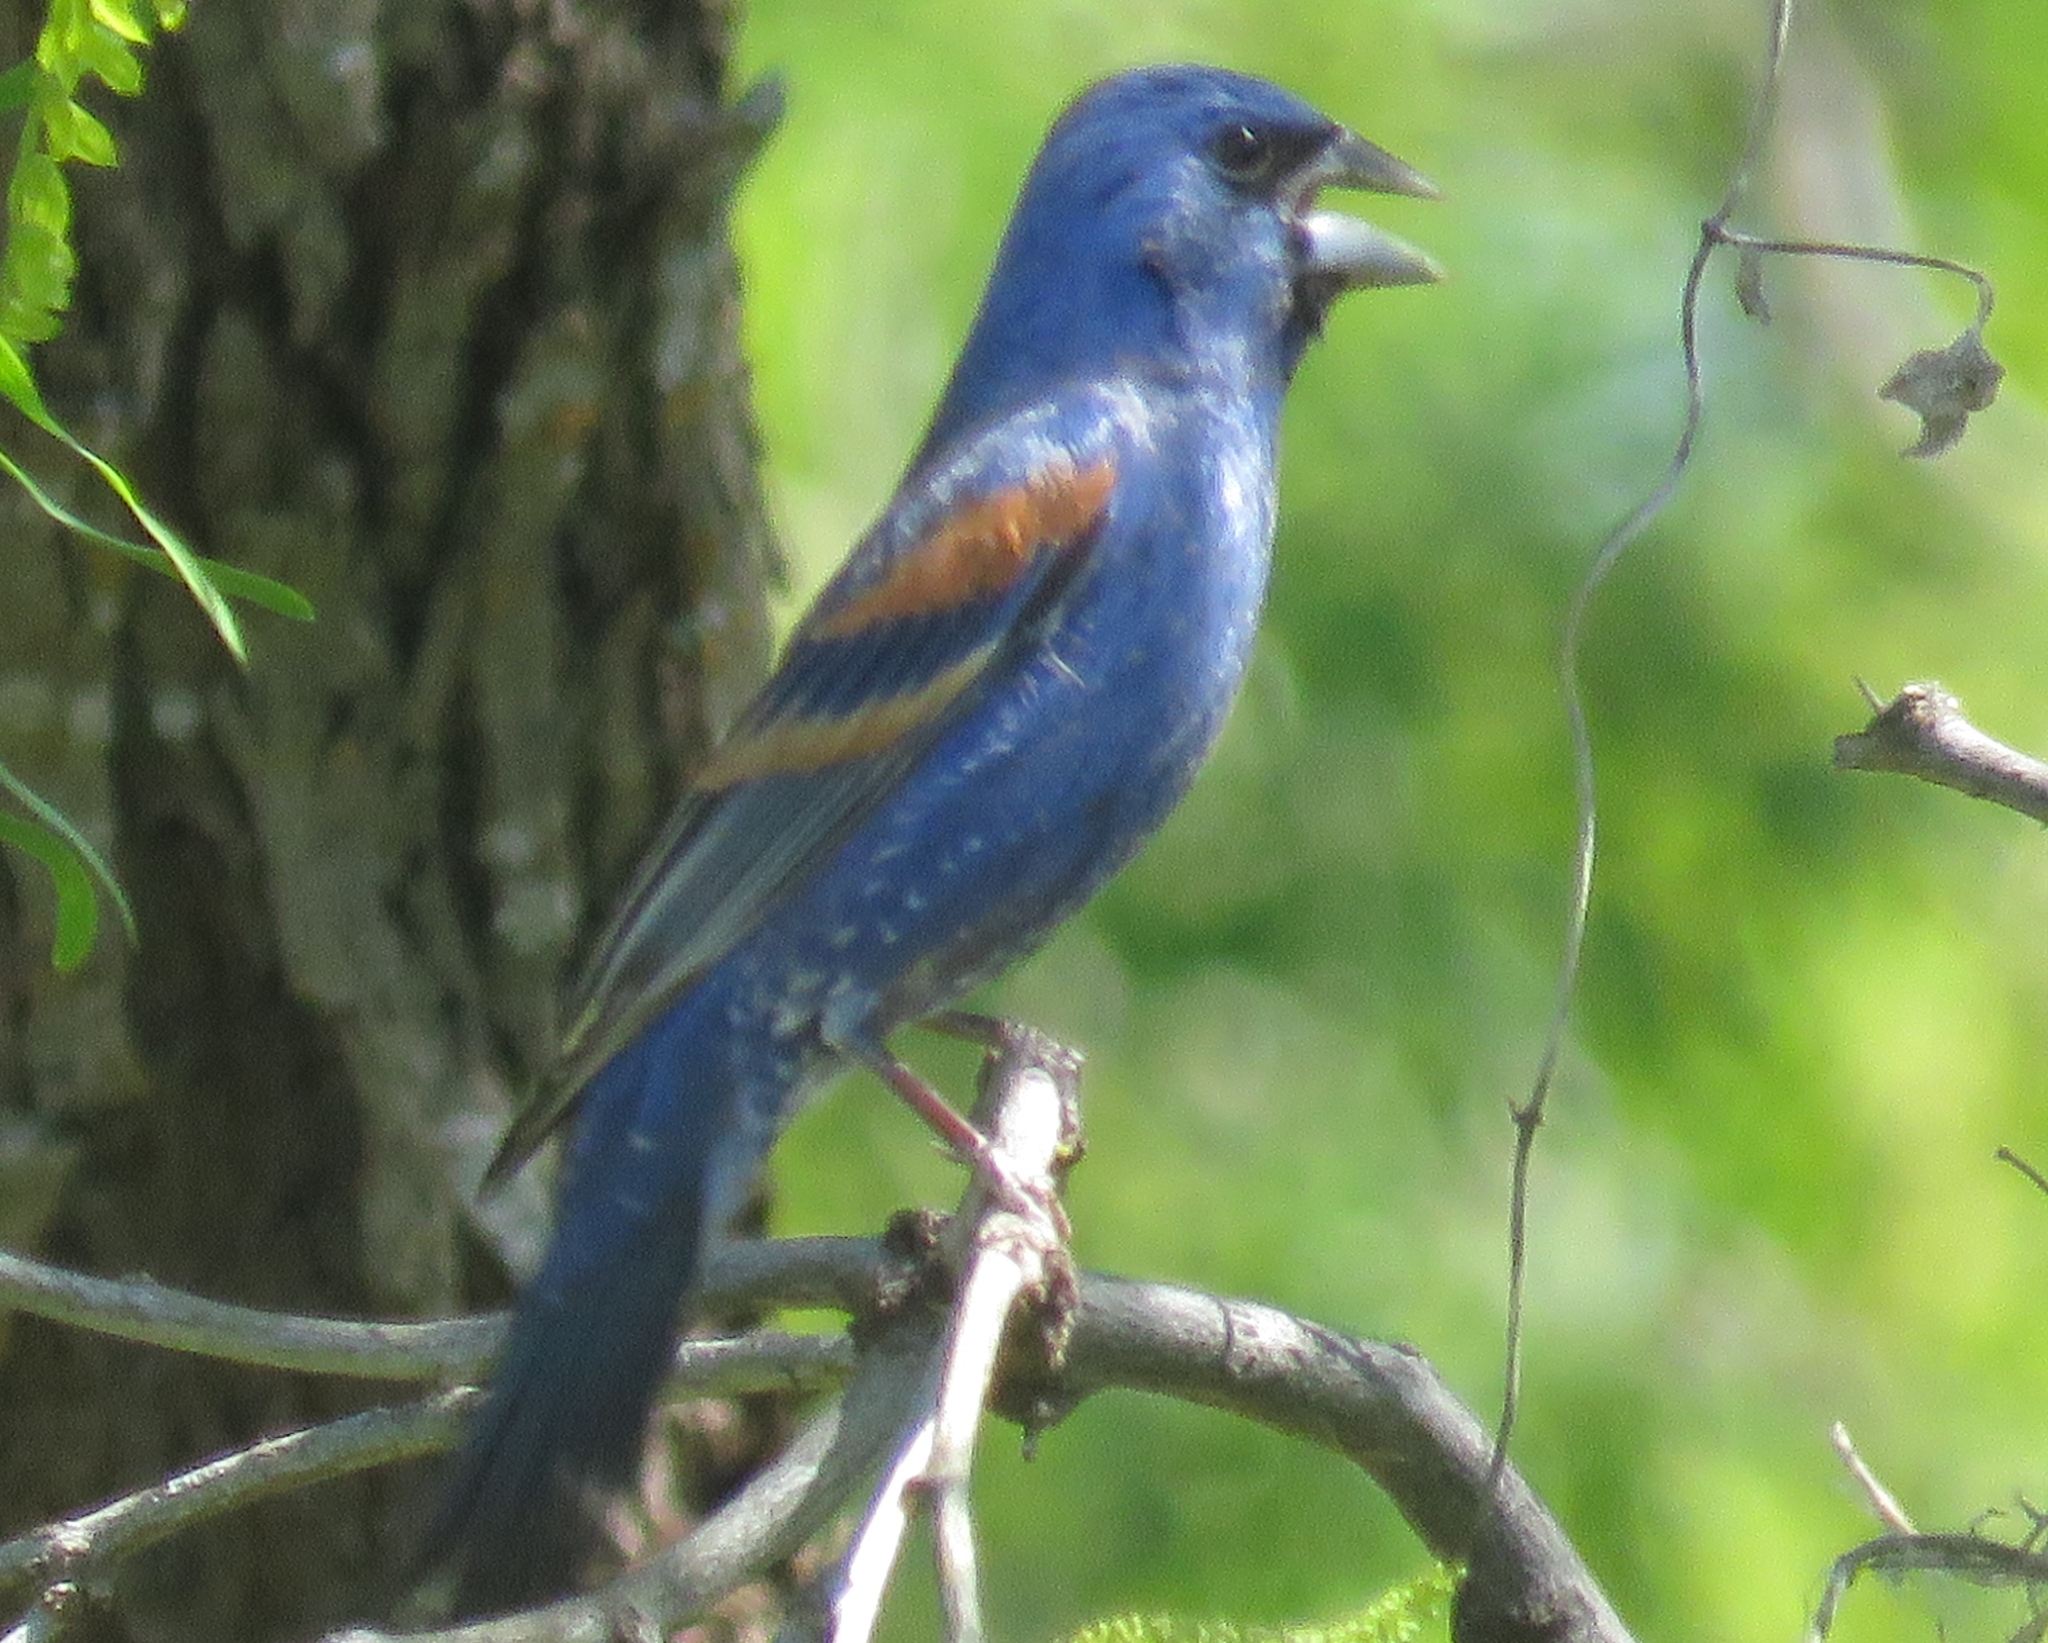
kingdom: Animalia
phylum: Chordata
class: Aves
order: Passeriformes
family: Cardinalidae
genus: Passerina
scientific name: Passerina caerulea
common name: Blue grosbeak
